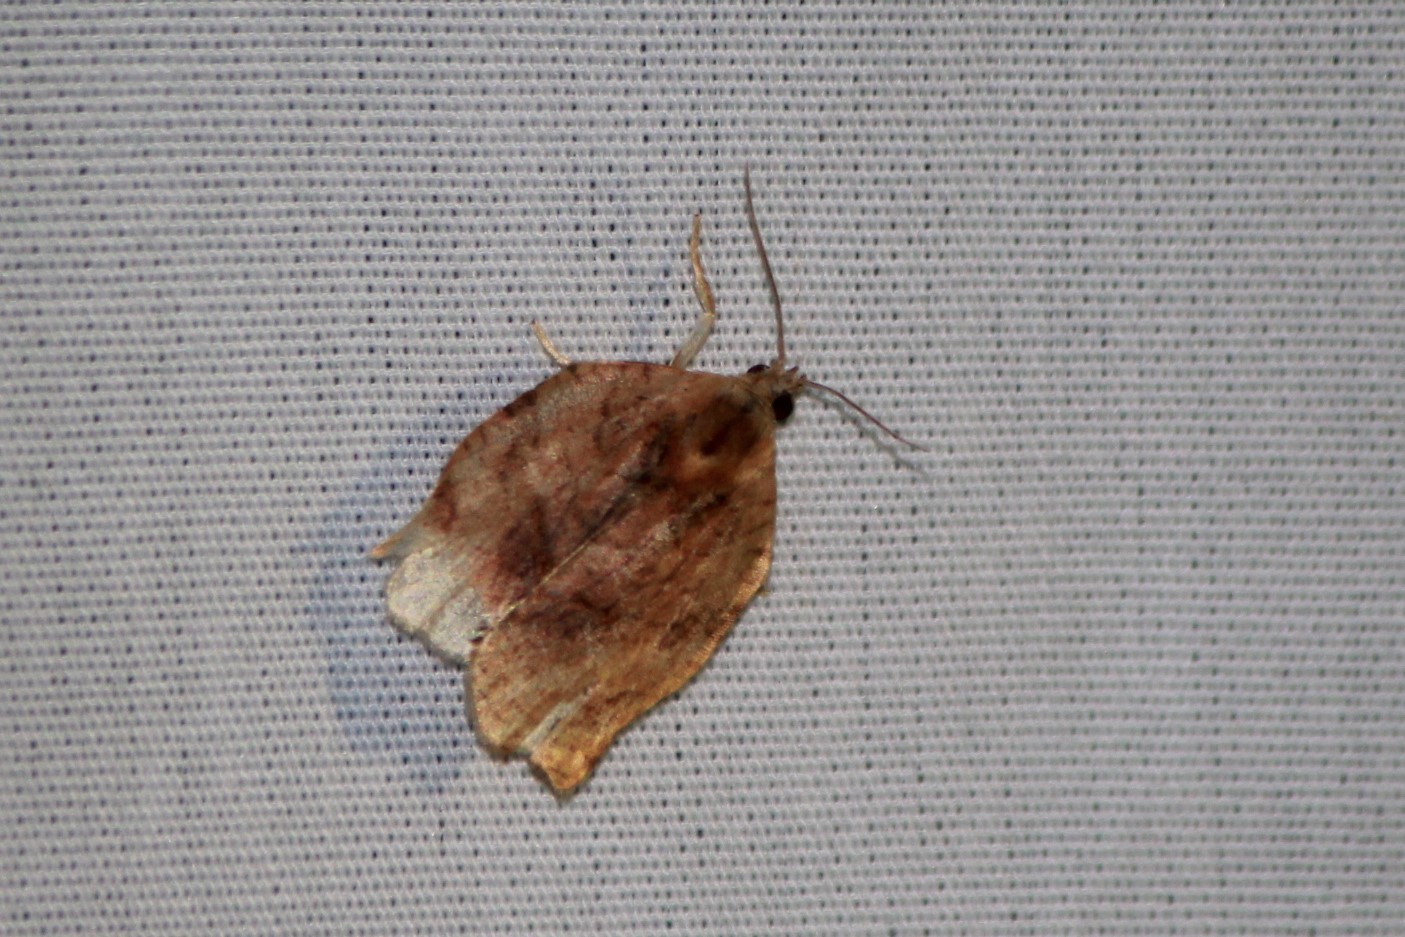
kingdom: Animalia
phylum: Arthropoda
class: Insecta
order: Lepidoptera
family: Tortricidae
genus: Archips
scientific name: Archips purpurana
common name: Omnivorous leafroller
